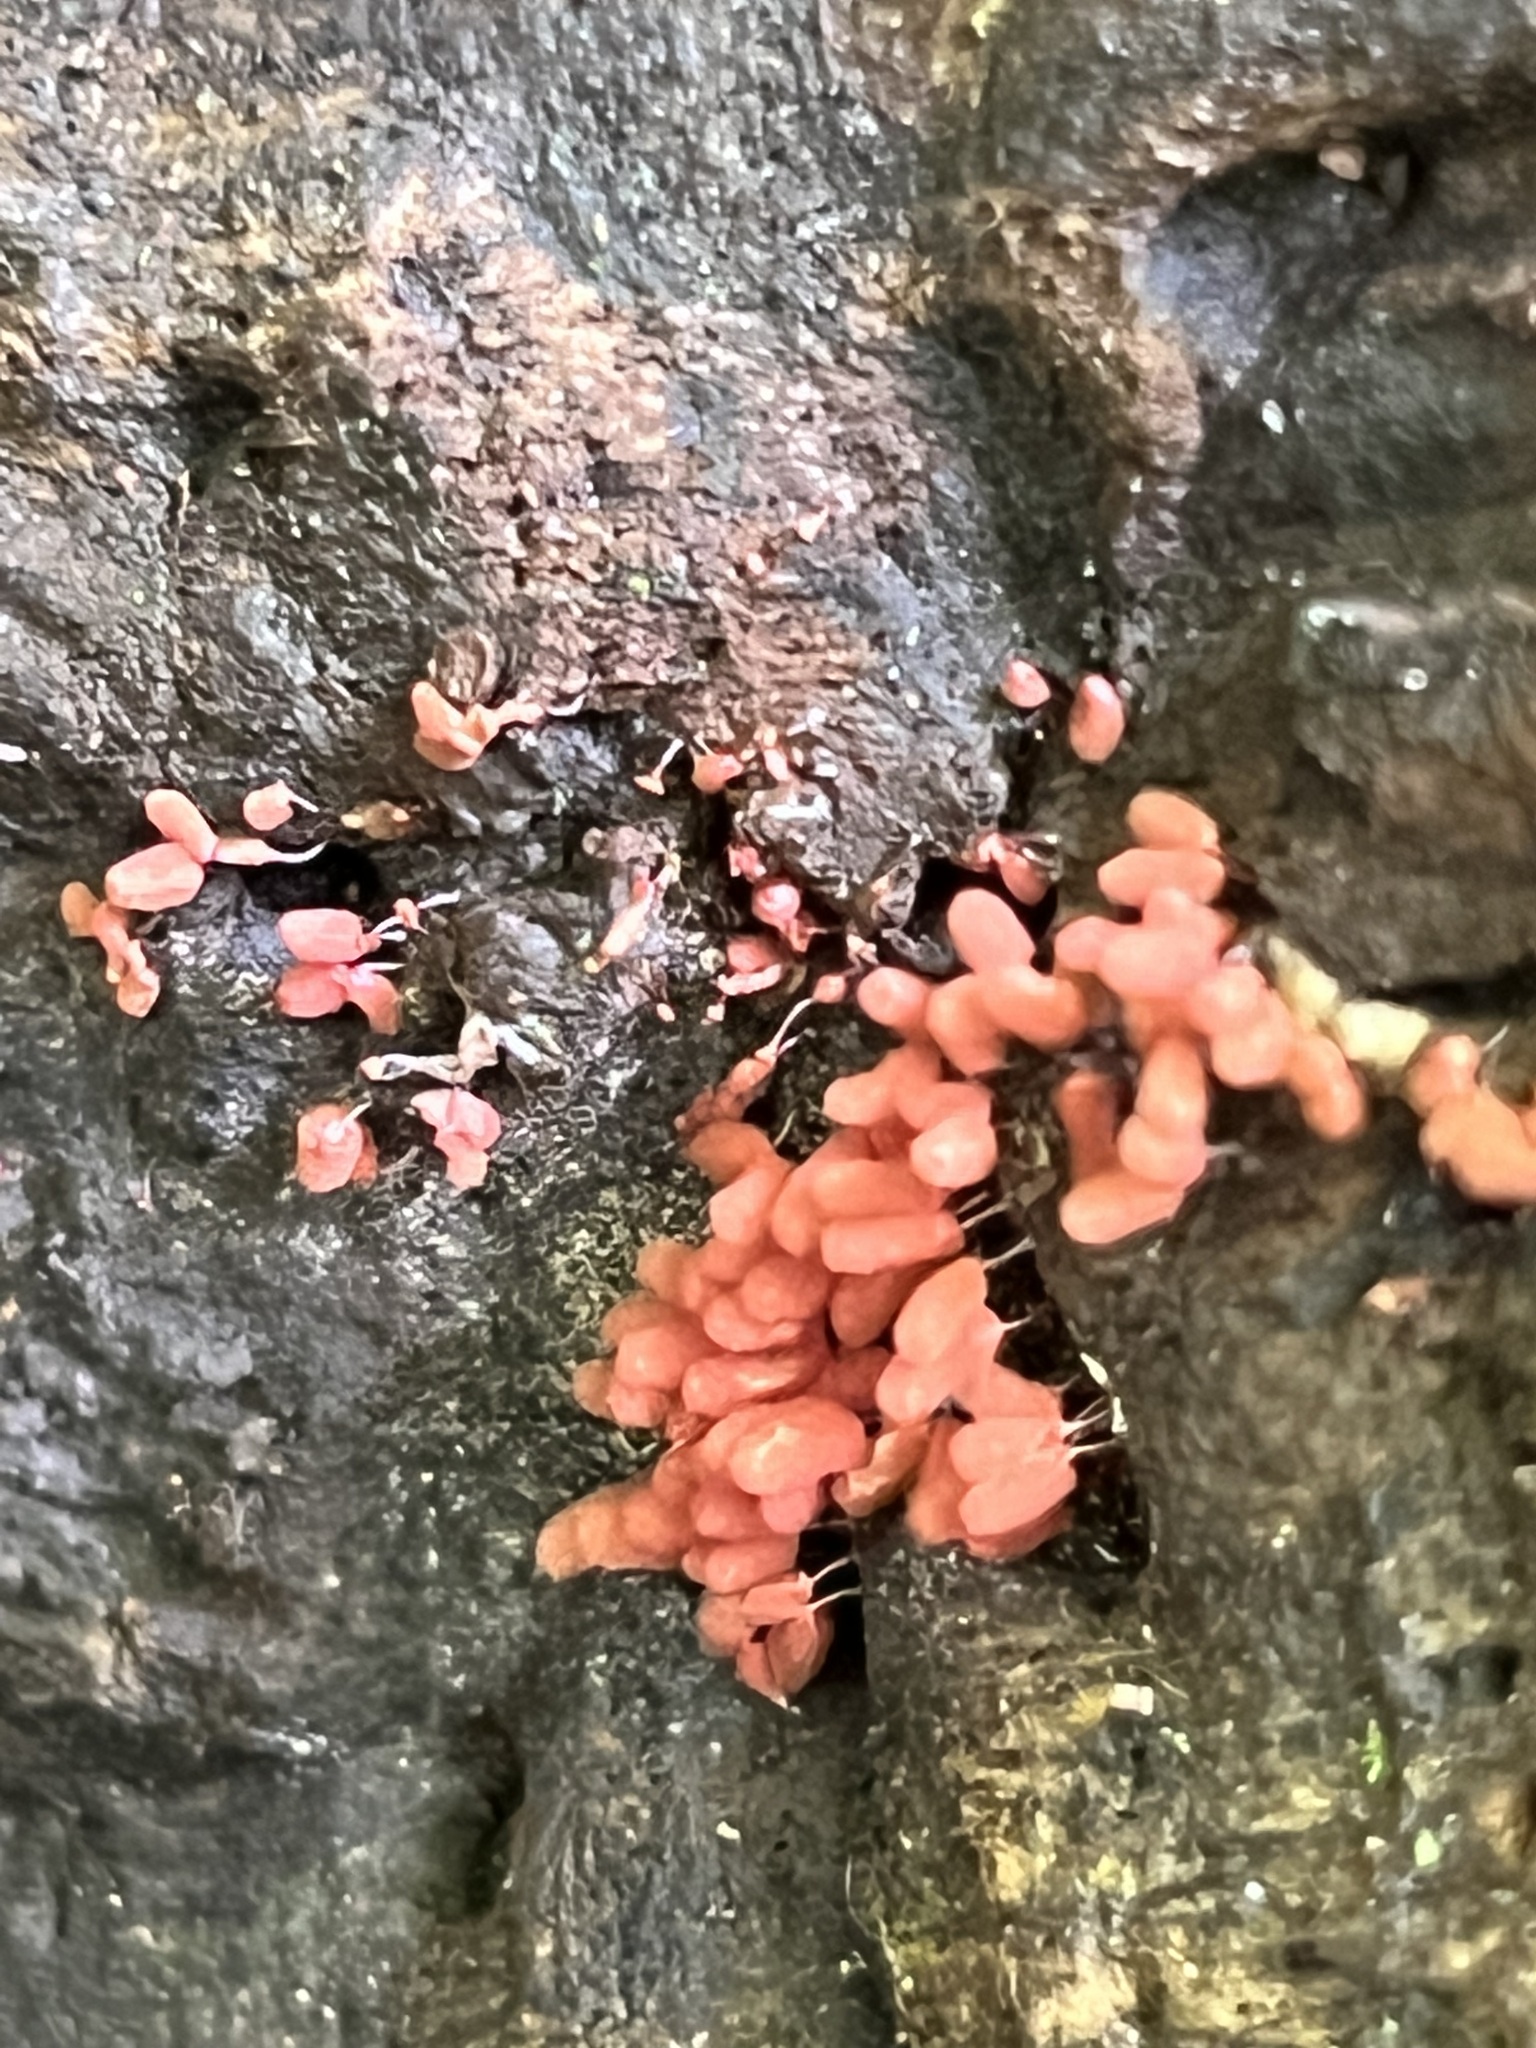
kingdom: Protozoa
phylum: Mycetozoa
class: Myxomycetes
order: Trichiales
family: Arcyriaceae
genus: Arcyria
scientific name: Arcyria denudata
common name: Carnival candy slime mold
